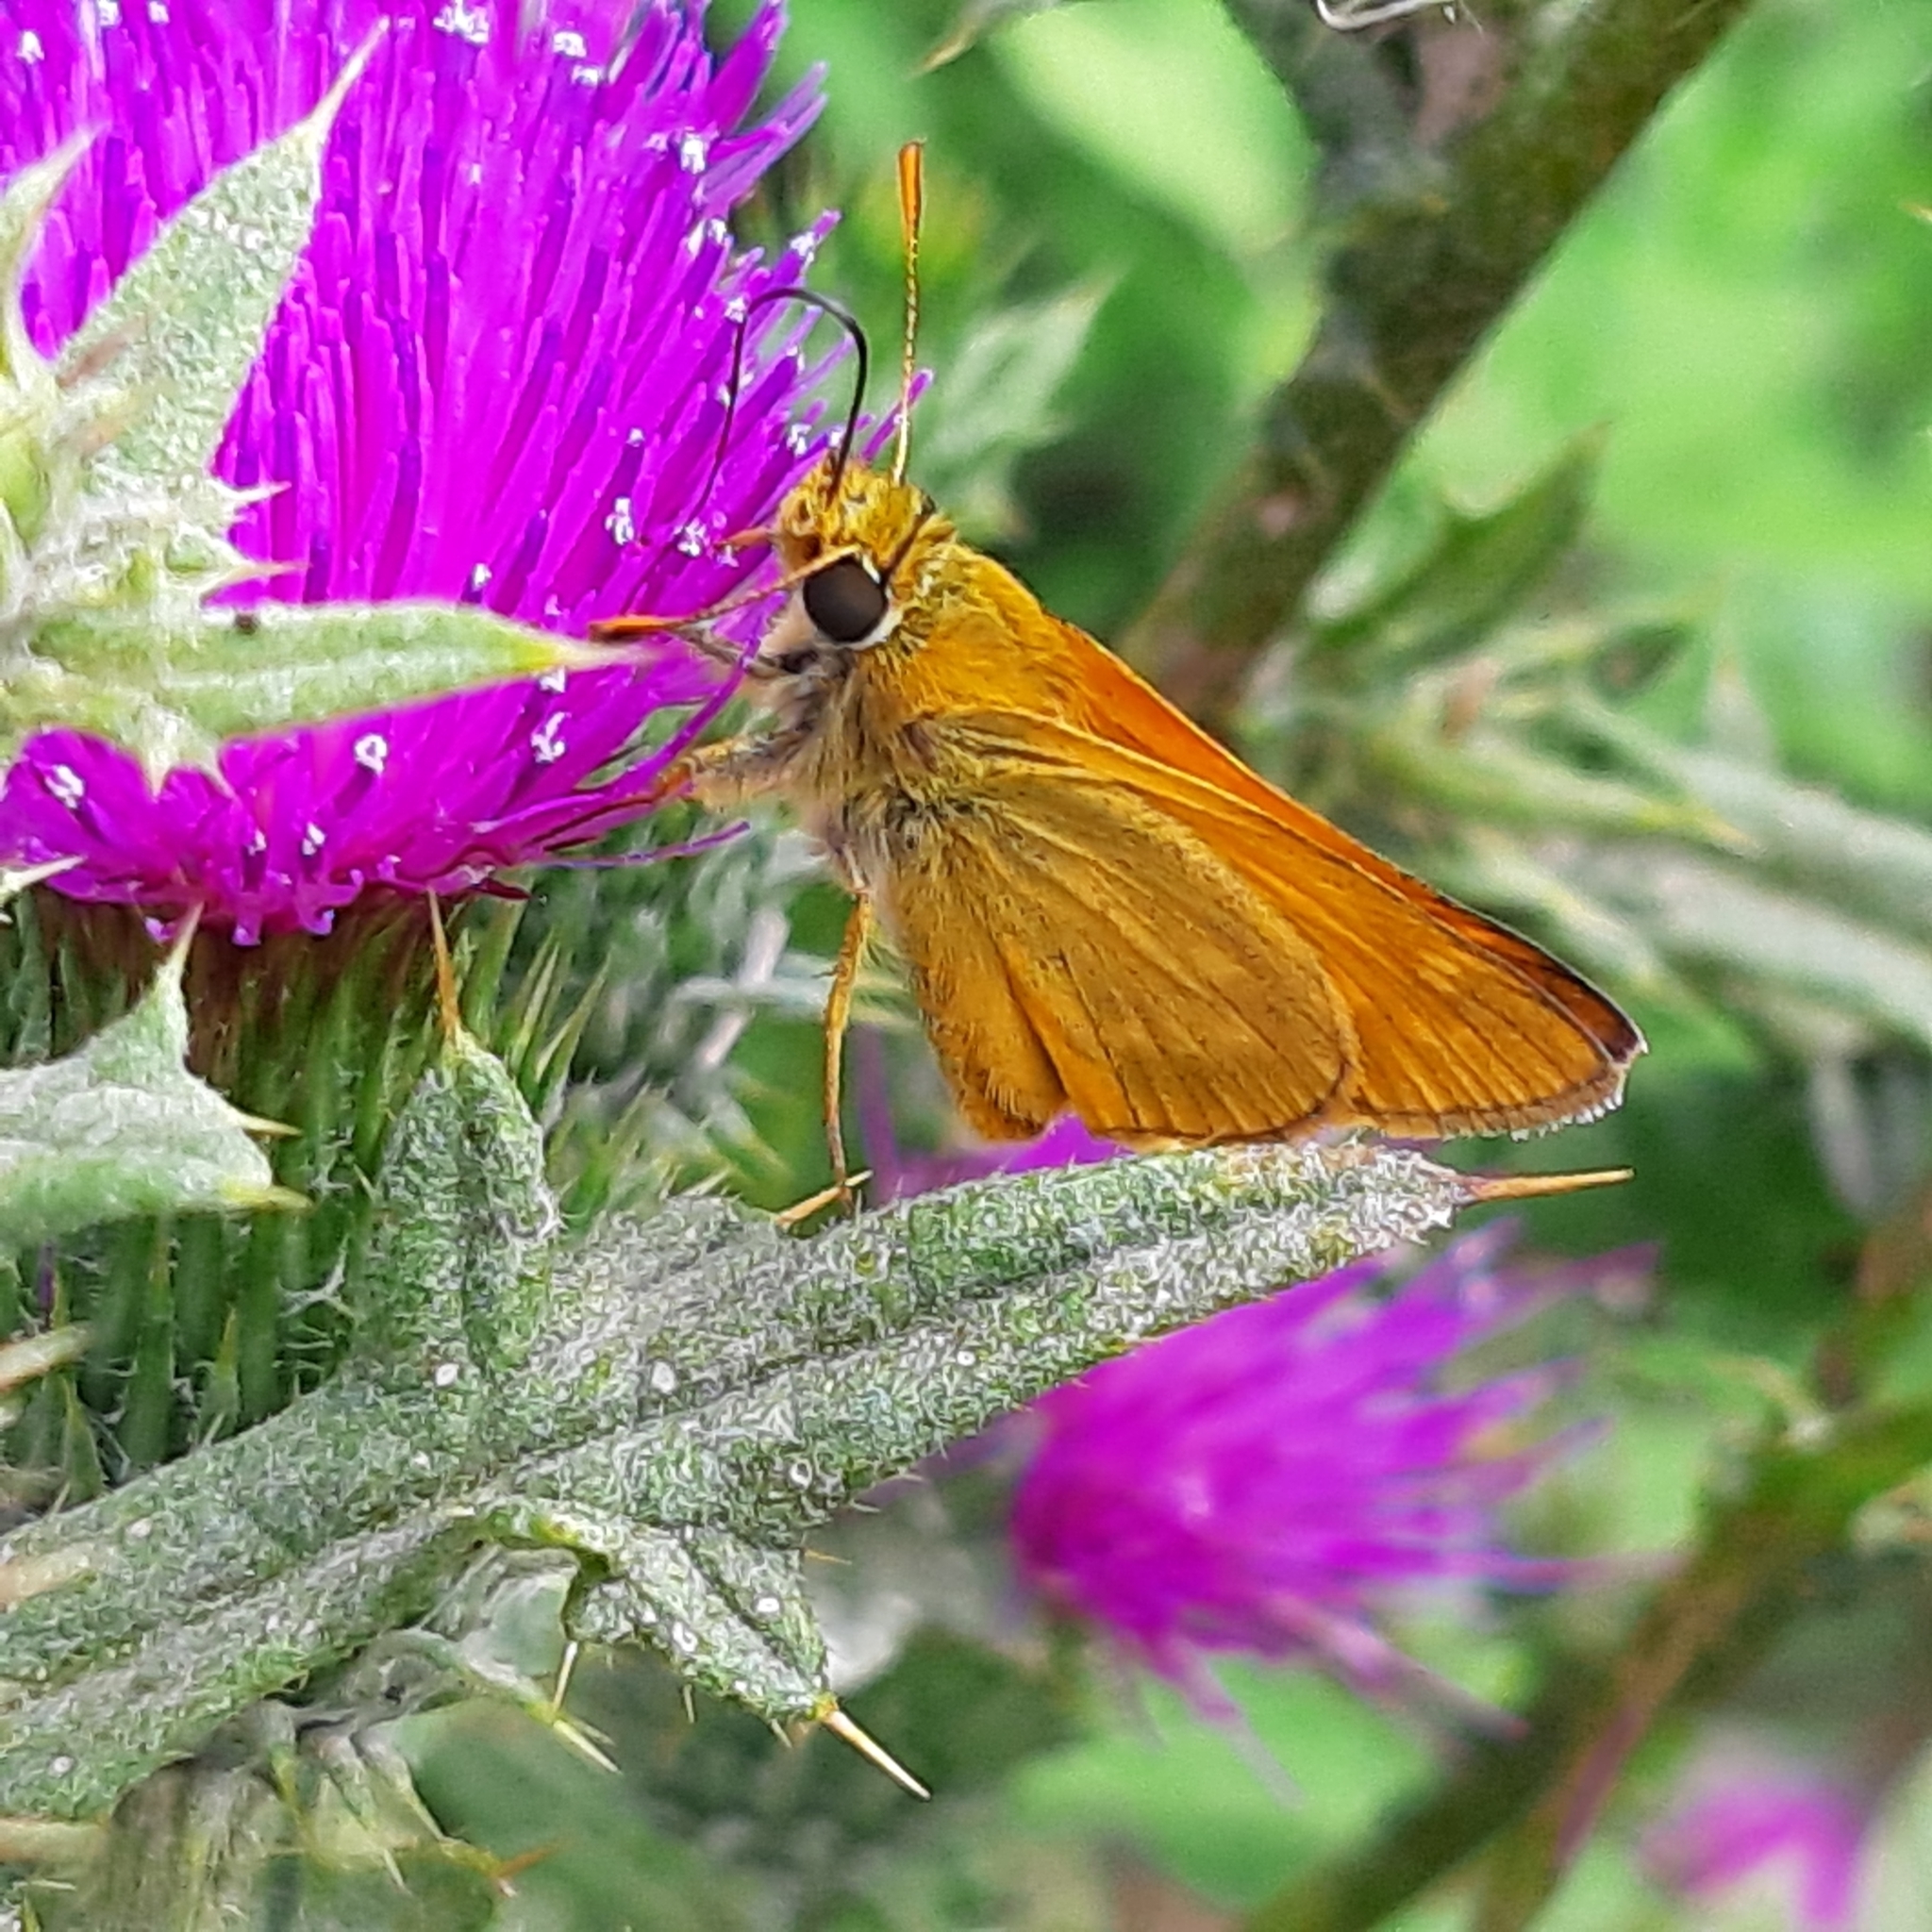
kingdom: Animalia
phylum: Arthropoda
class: Insecta
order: Lepidoptera
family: Hesperiidae
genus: Ochlodes
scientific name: Ochlodes venata
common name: Large skipper
